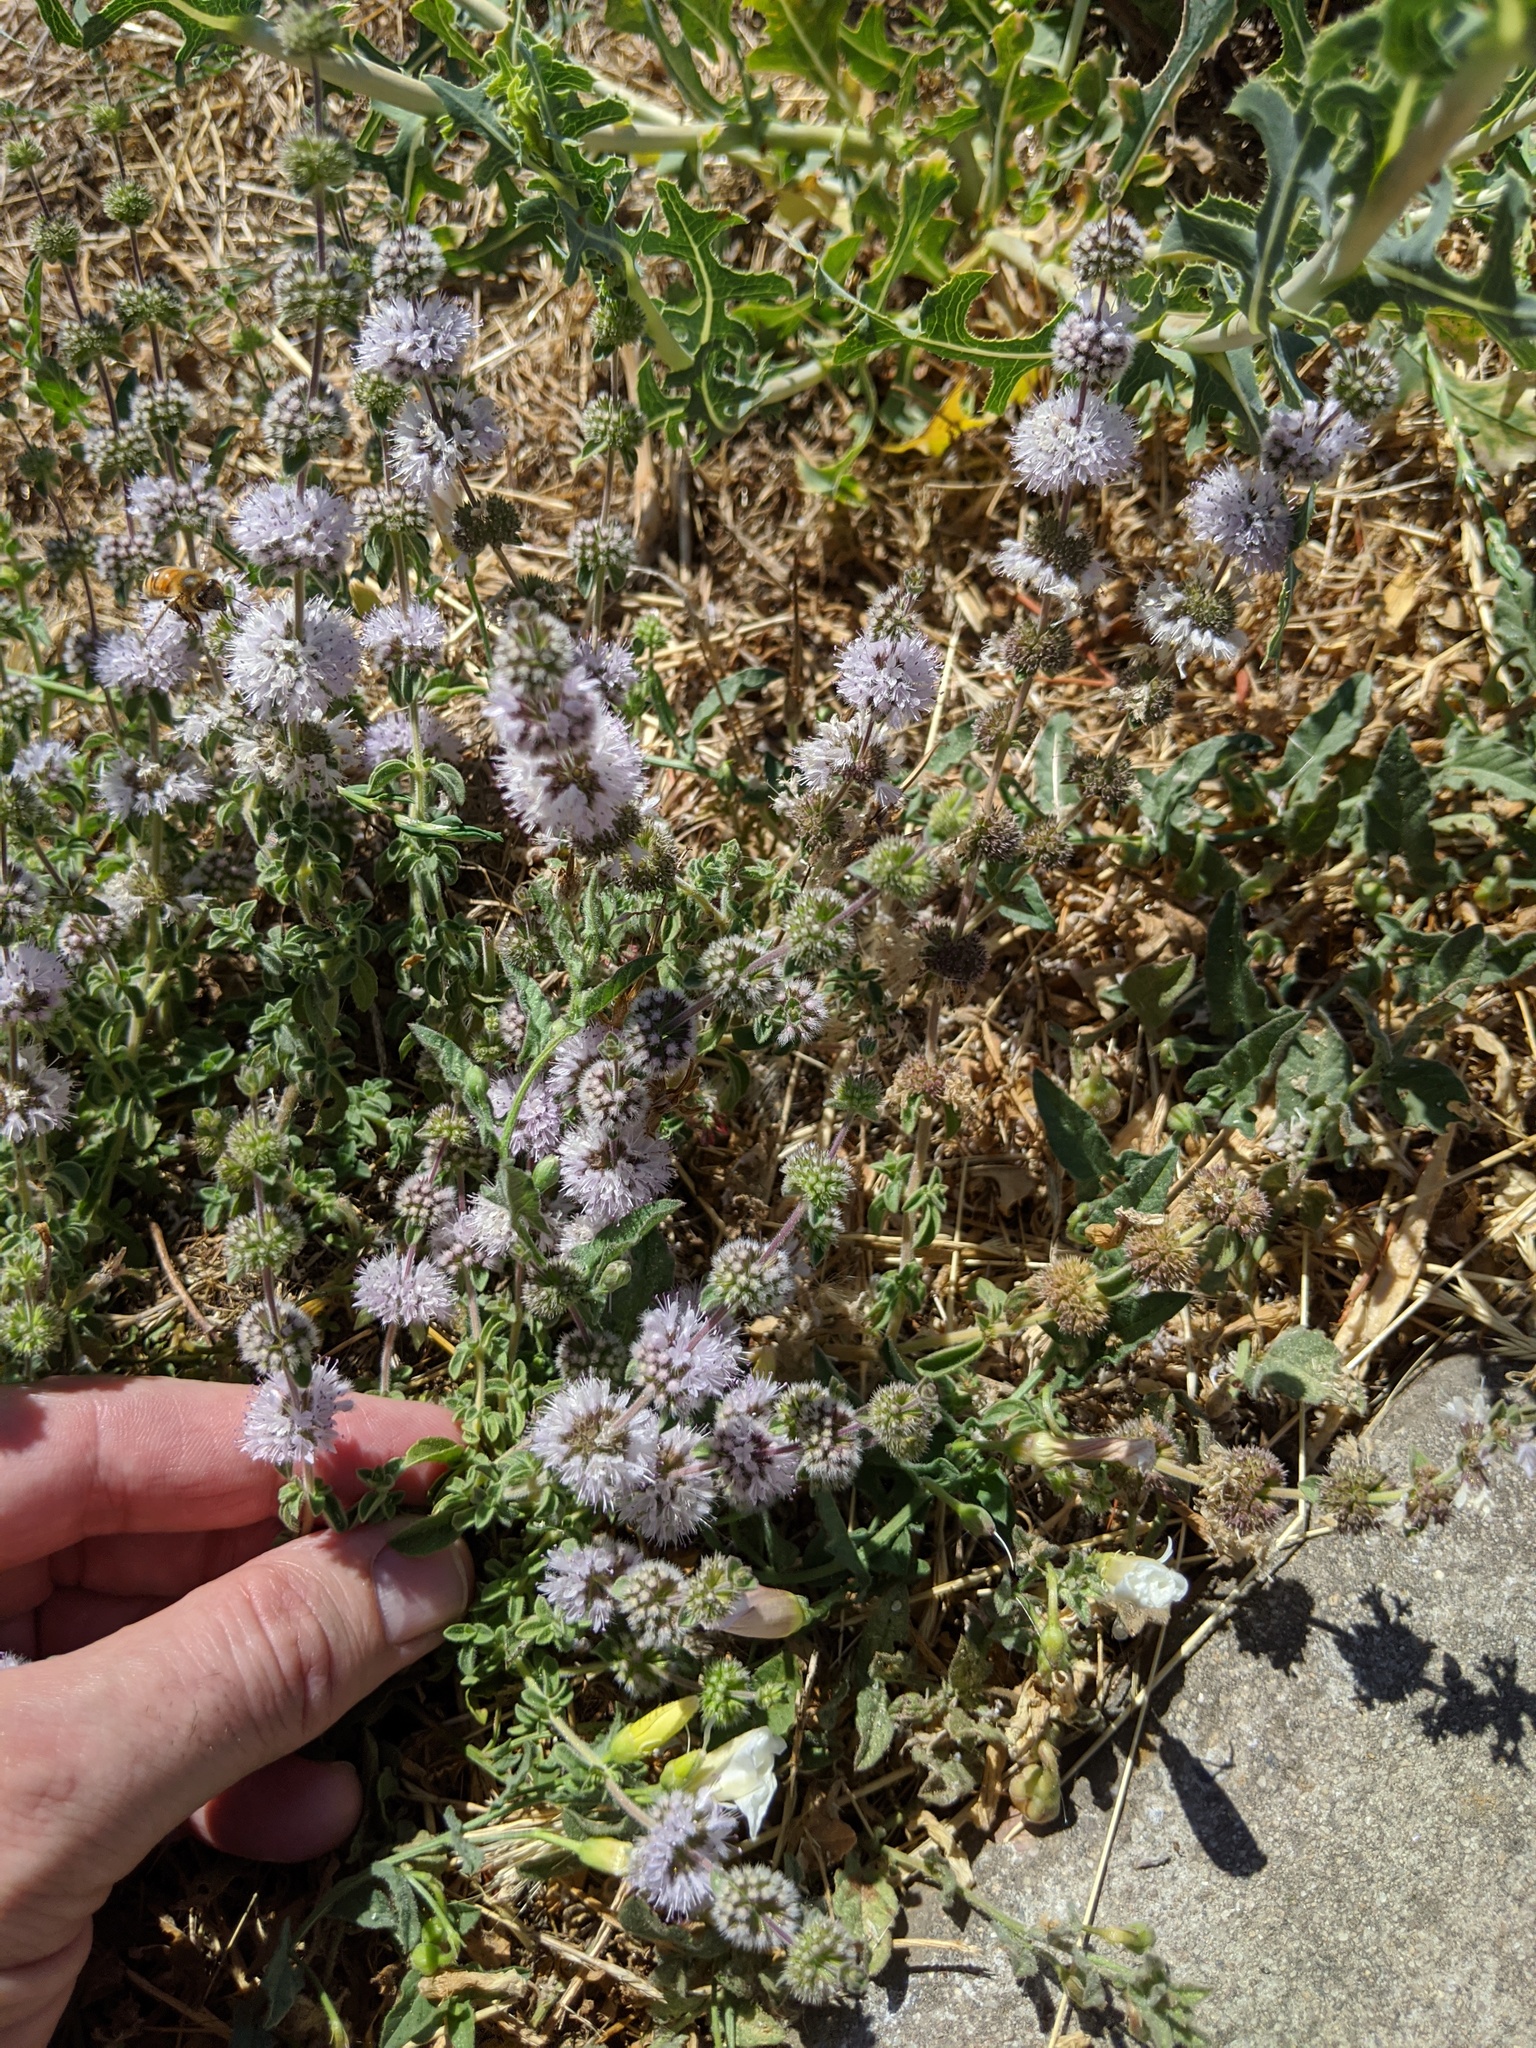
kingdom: Plantae
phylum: Tracheophyta
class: Magnoliopsida
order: Lamiales
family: Lamiaceae
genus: Mentha
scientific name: Mentha pulegium
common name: Pennyroyal
